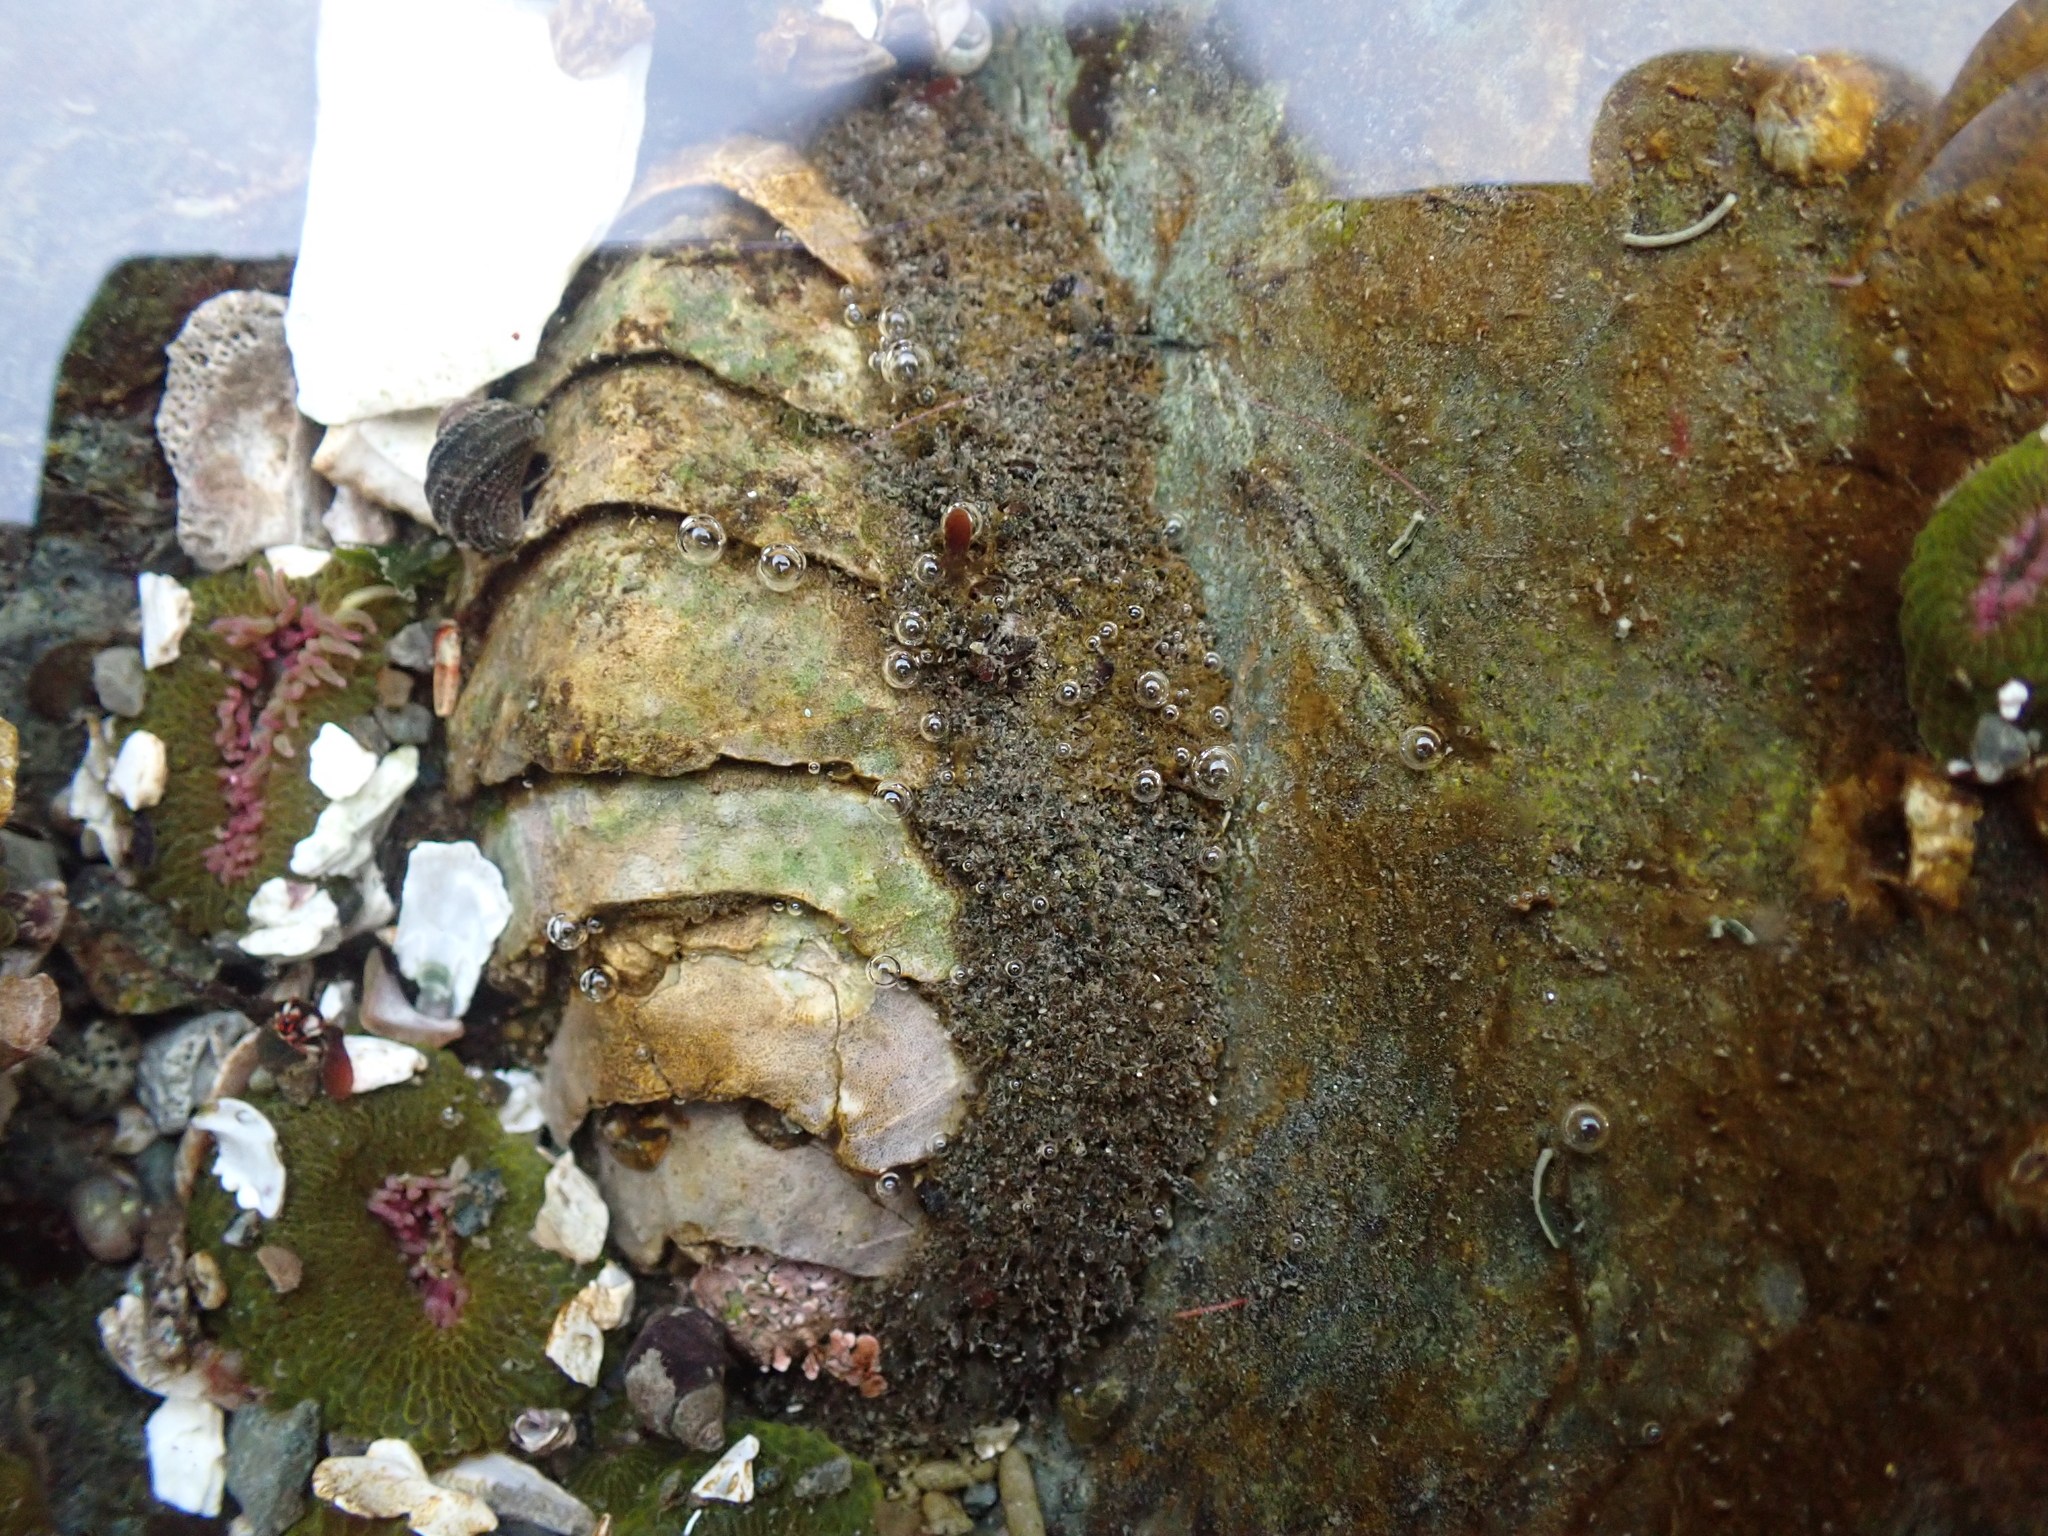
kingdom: Animalia
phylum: Mollusca
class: Polyplacophora
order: Chitonida
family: Mopaliidae
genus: Mopalia
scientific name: Mopalia muscosa
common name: Mossy chiton
